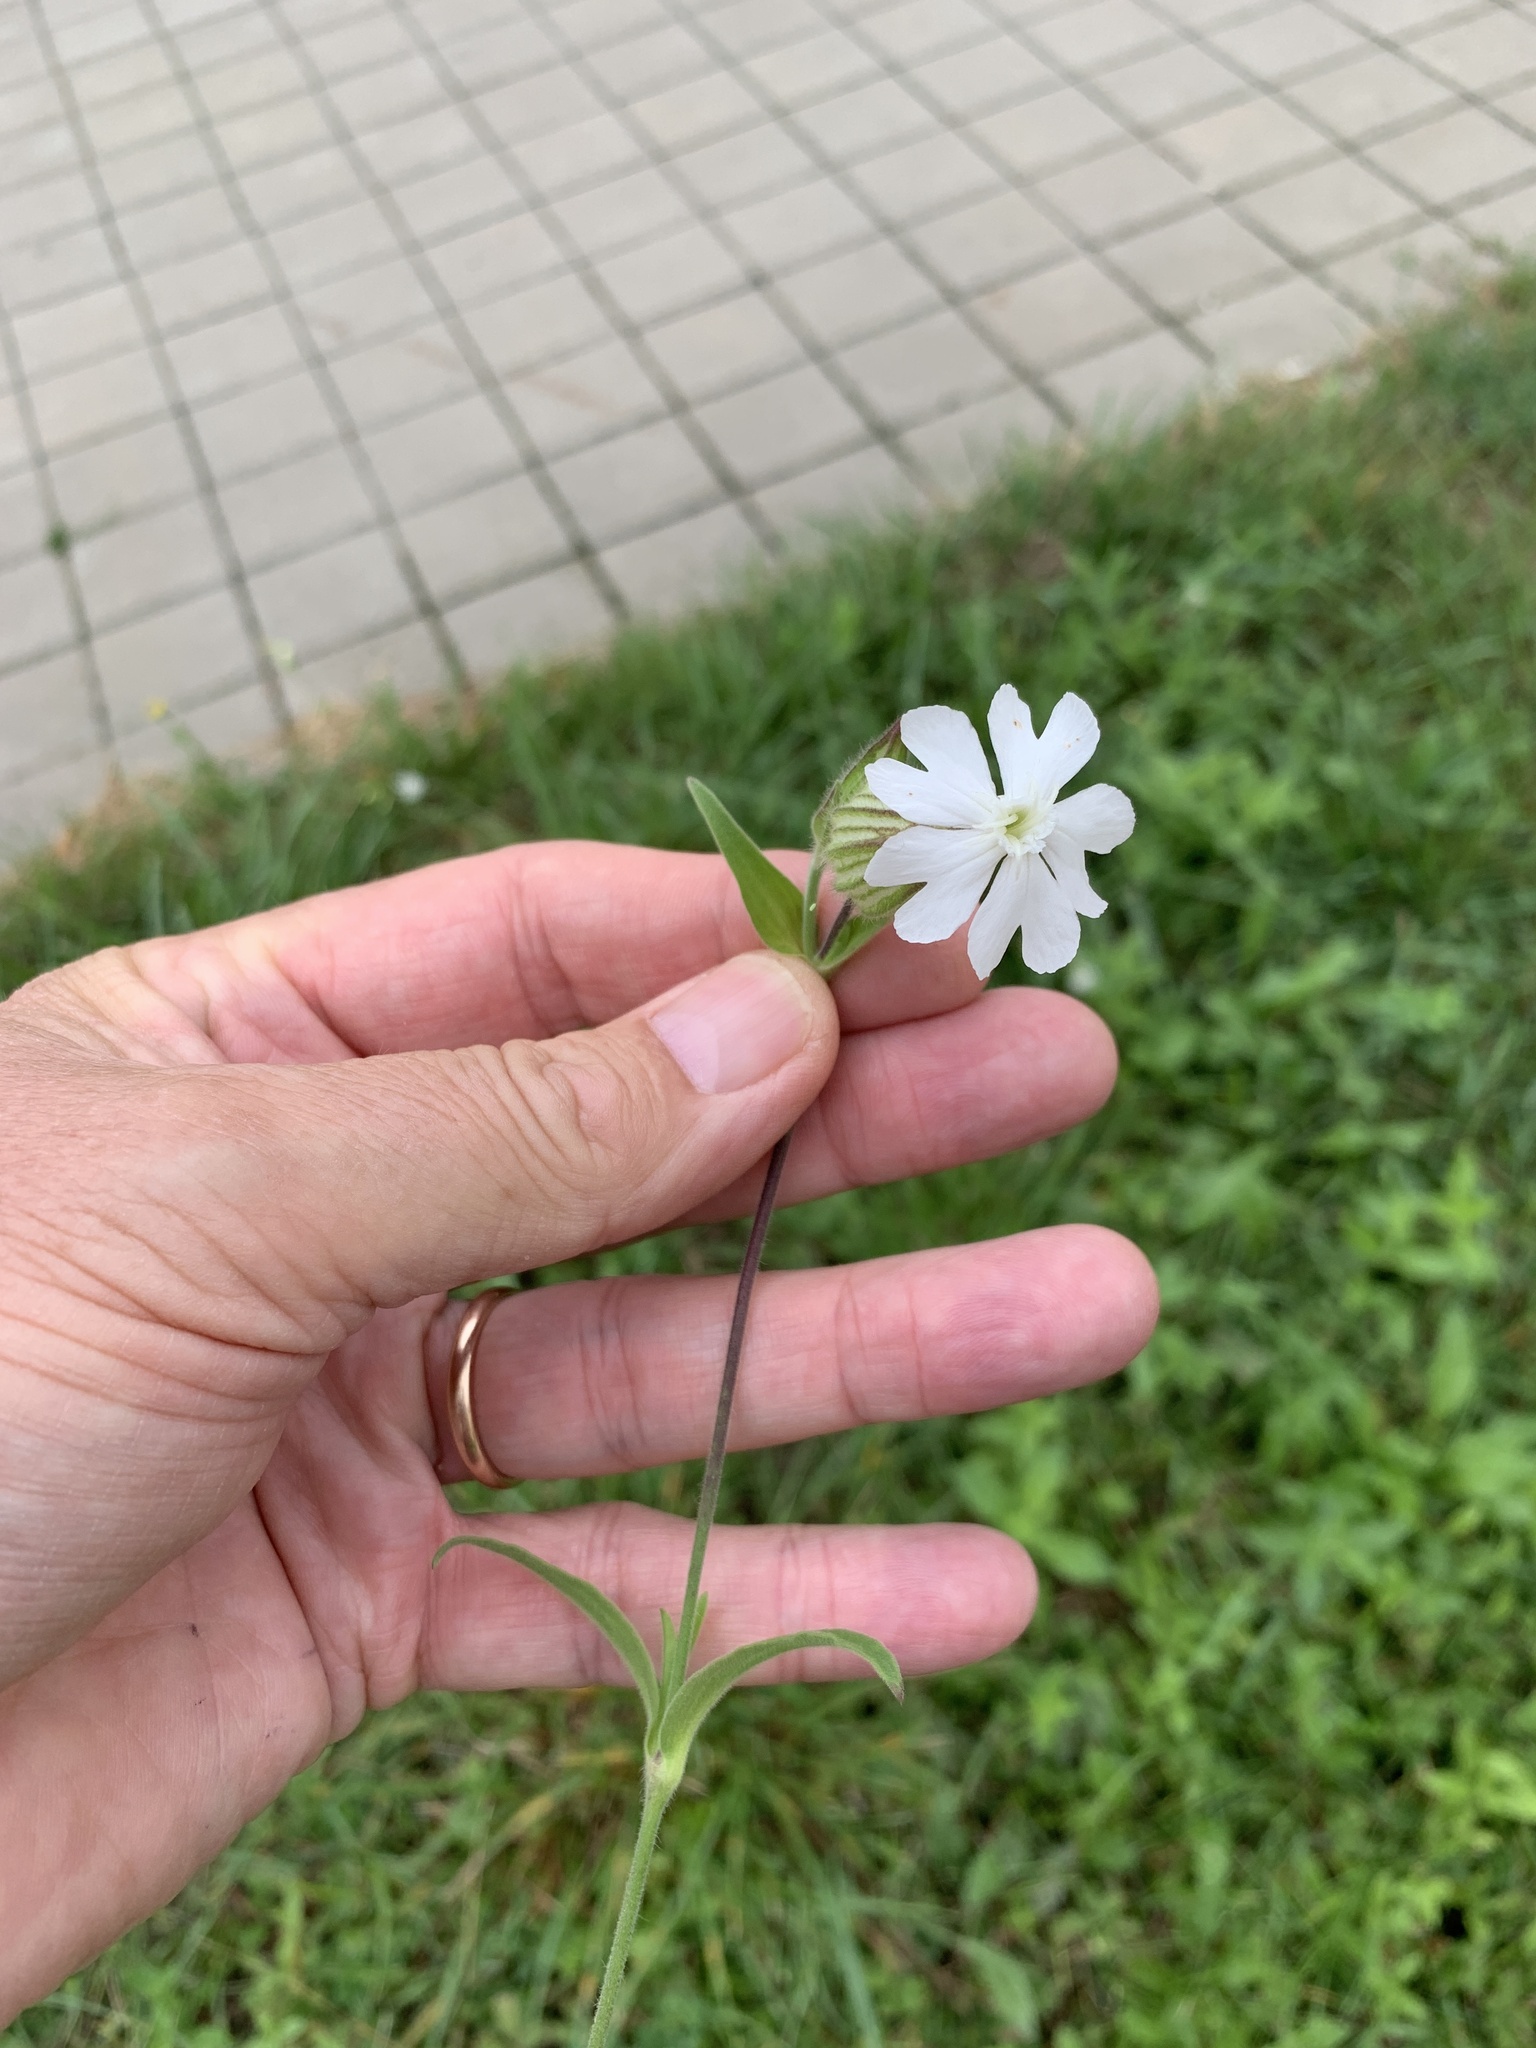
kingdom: Plantae
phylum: Tracheophyta
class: Magnoliopsida
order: Caryophyllales
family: Caryophyllaceae
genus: Silene
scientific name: Silene latifolia
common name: White campion
